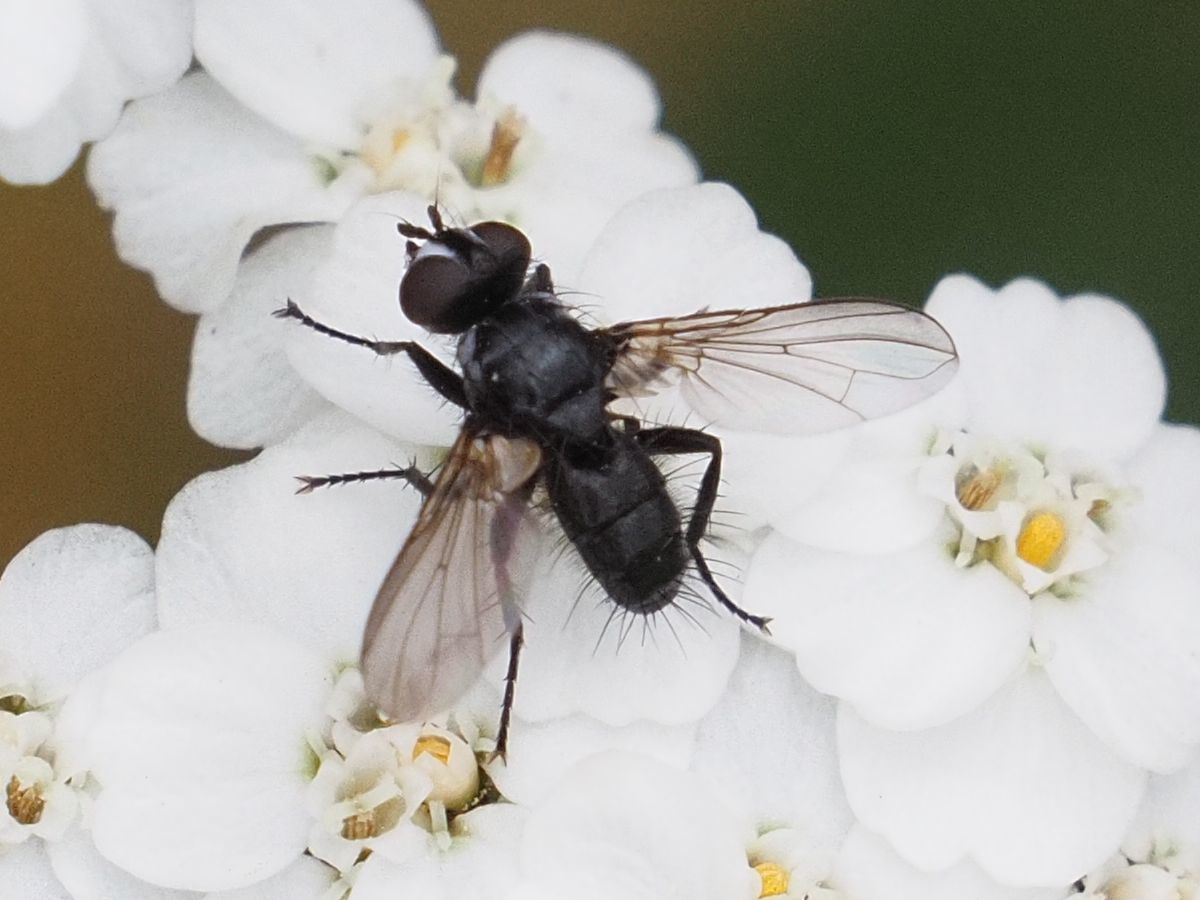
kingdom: Animalia
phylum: Arthropoda
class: Insecta
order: Diptera
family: Tachinidae
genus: Phania
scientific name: Phania funesta
